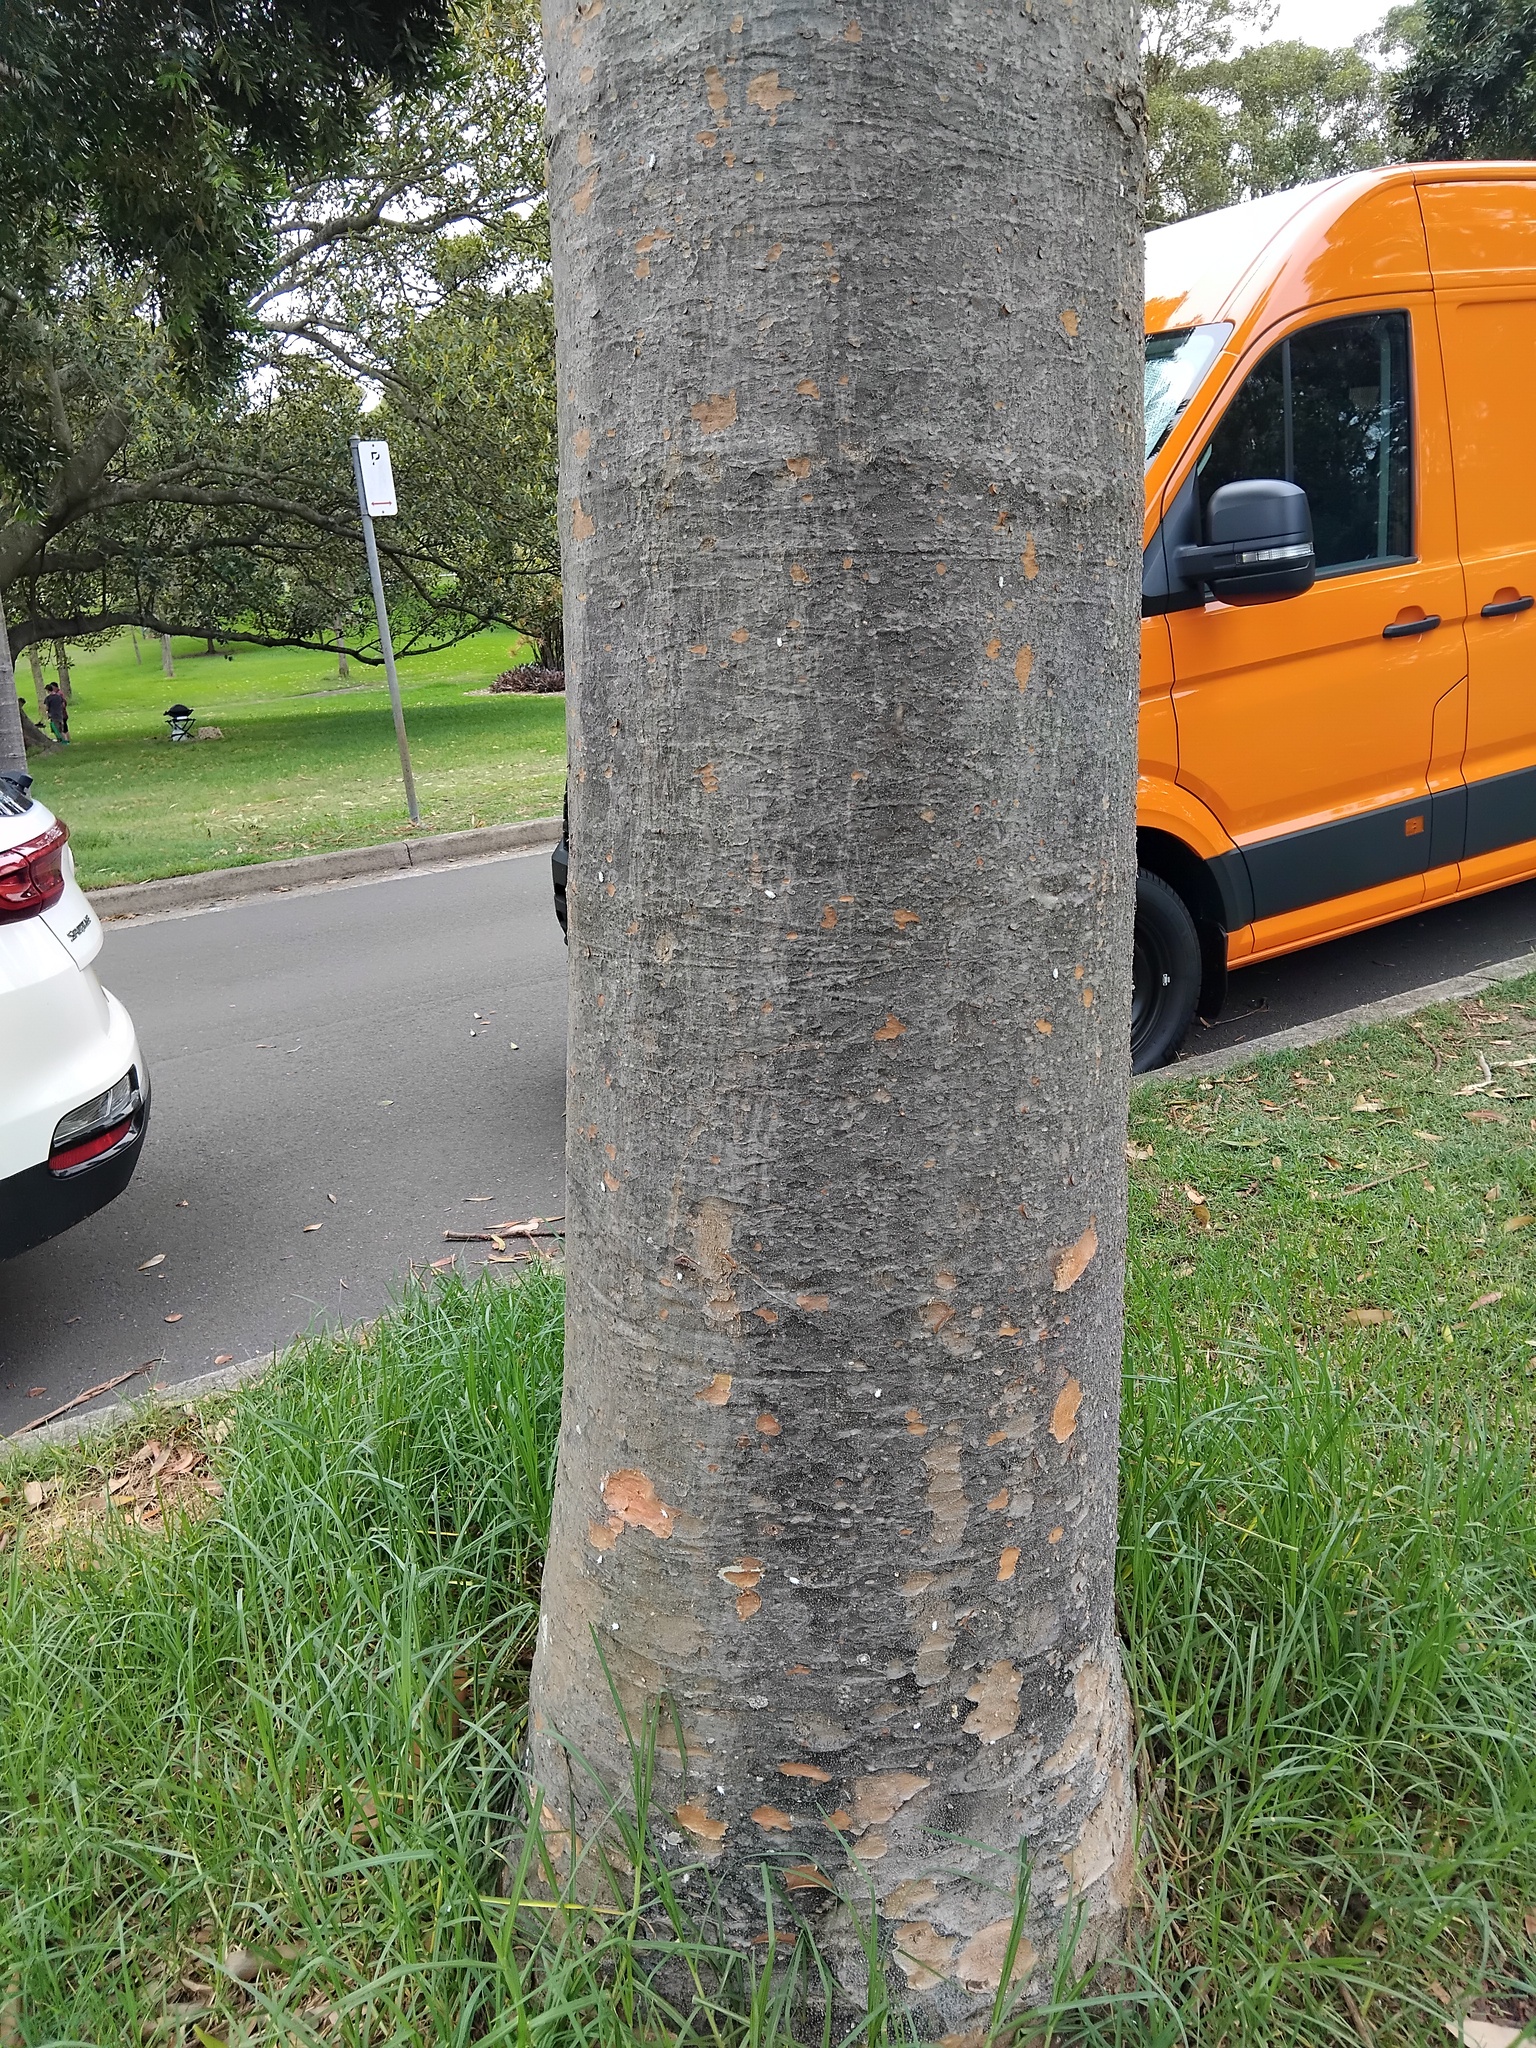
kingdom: Animalia
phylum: Arthropoda
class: Insecta
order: Coleoptera
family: Coccinellidae
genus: Cryptolaemus
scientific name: Cryptolaemus montrouzieri
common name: Mealybug destroyer
